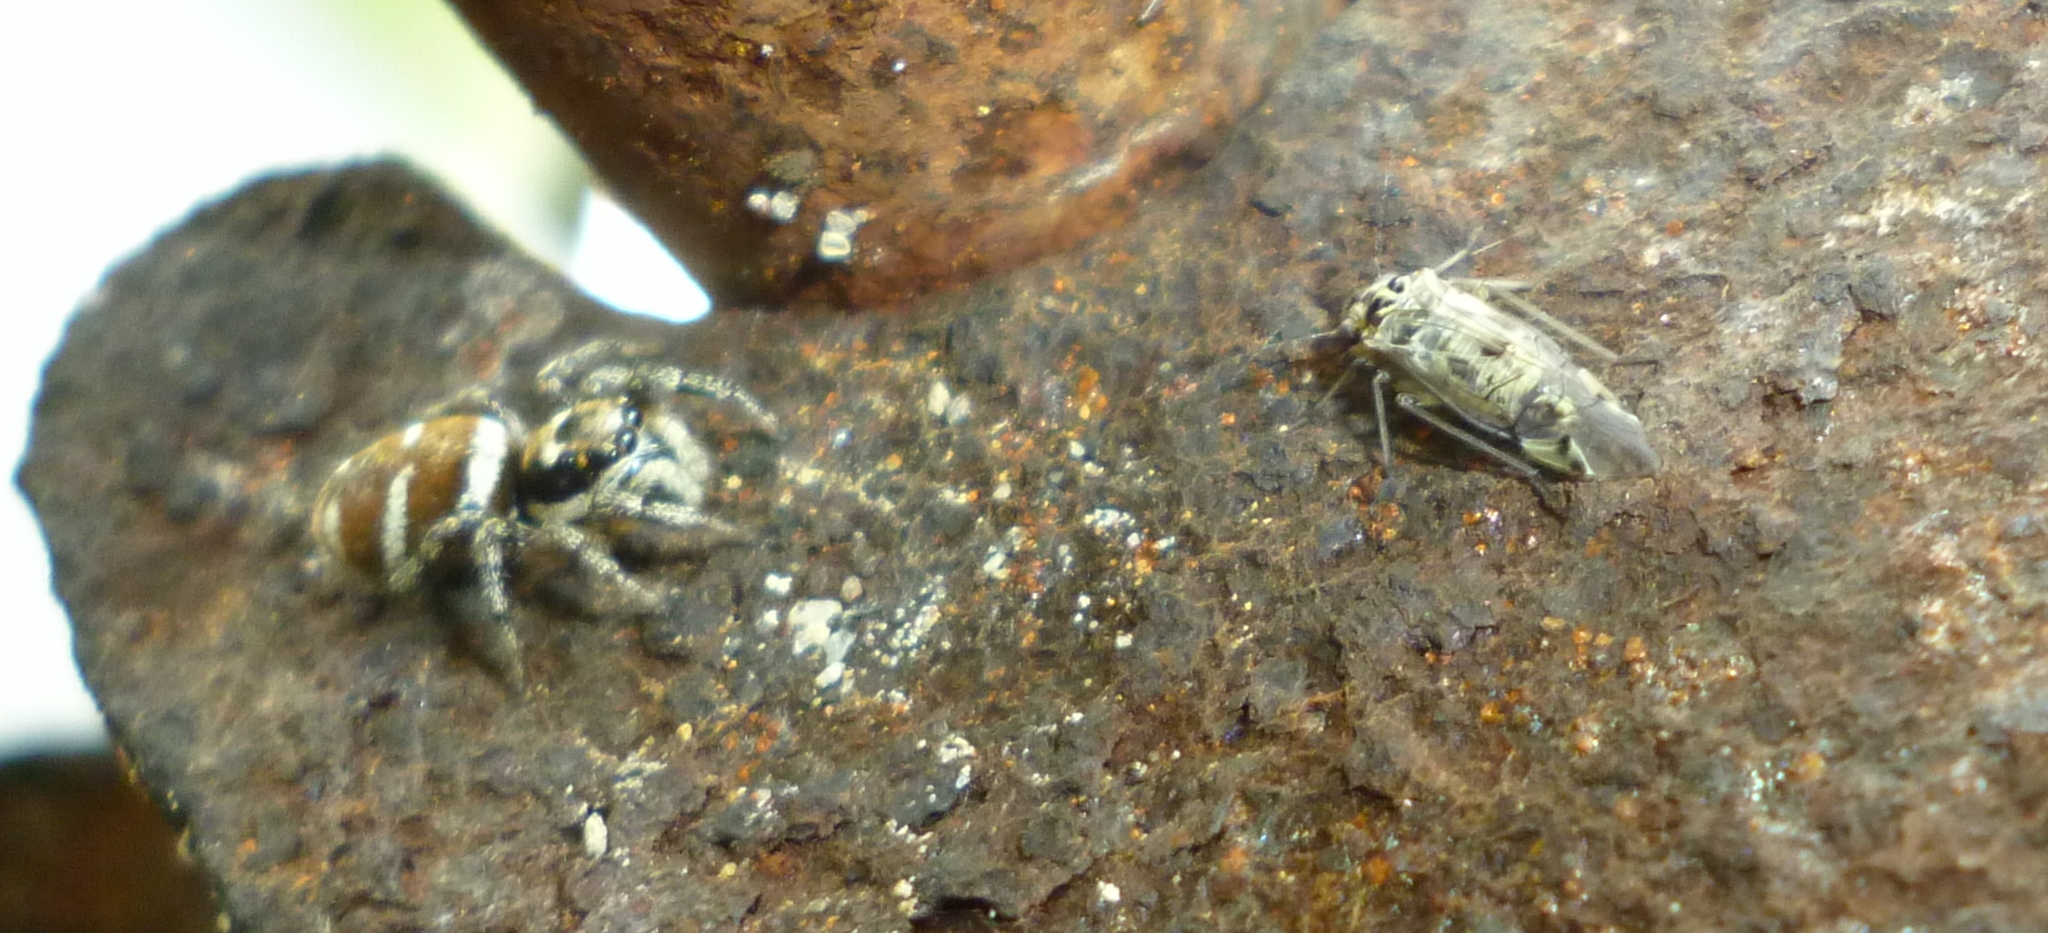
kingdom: Animalia
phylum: Arthropoda
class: Arachnida
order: Araneae
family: Salticidae
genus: Salticus
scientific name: Salticus scenicus
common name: Zebra jumper
